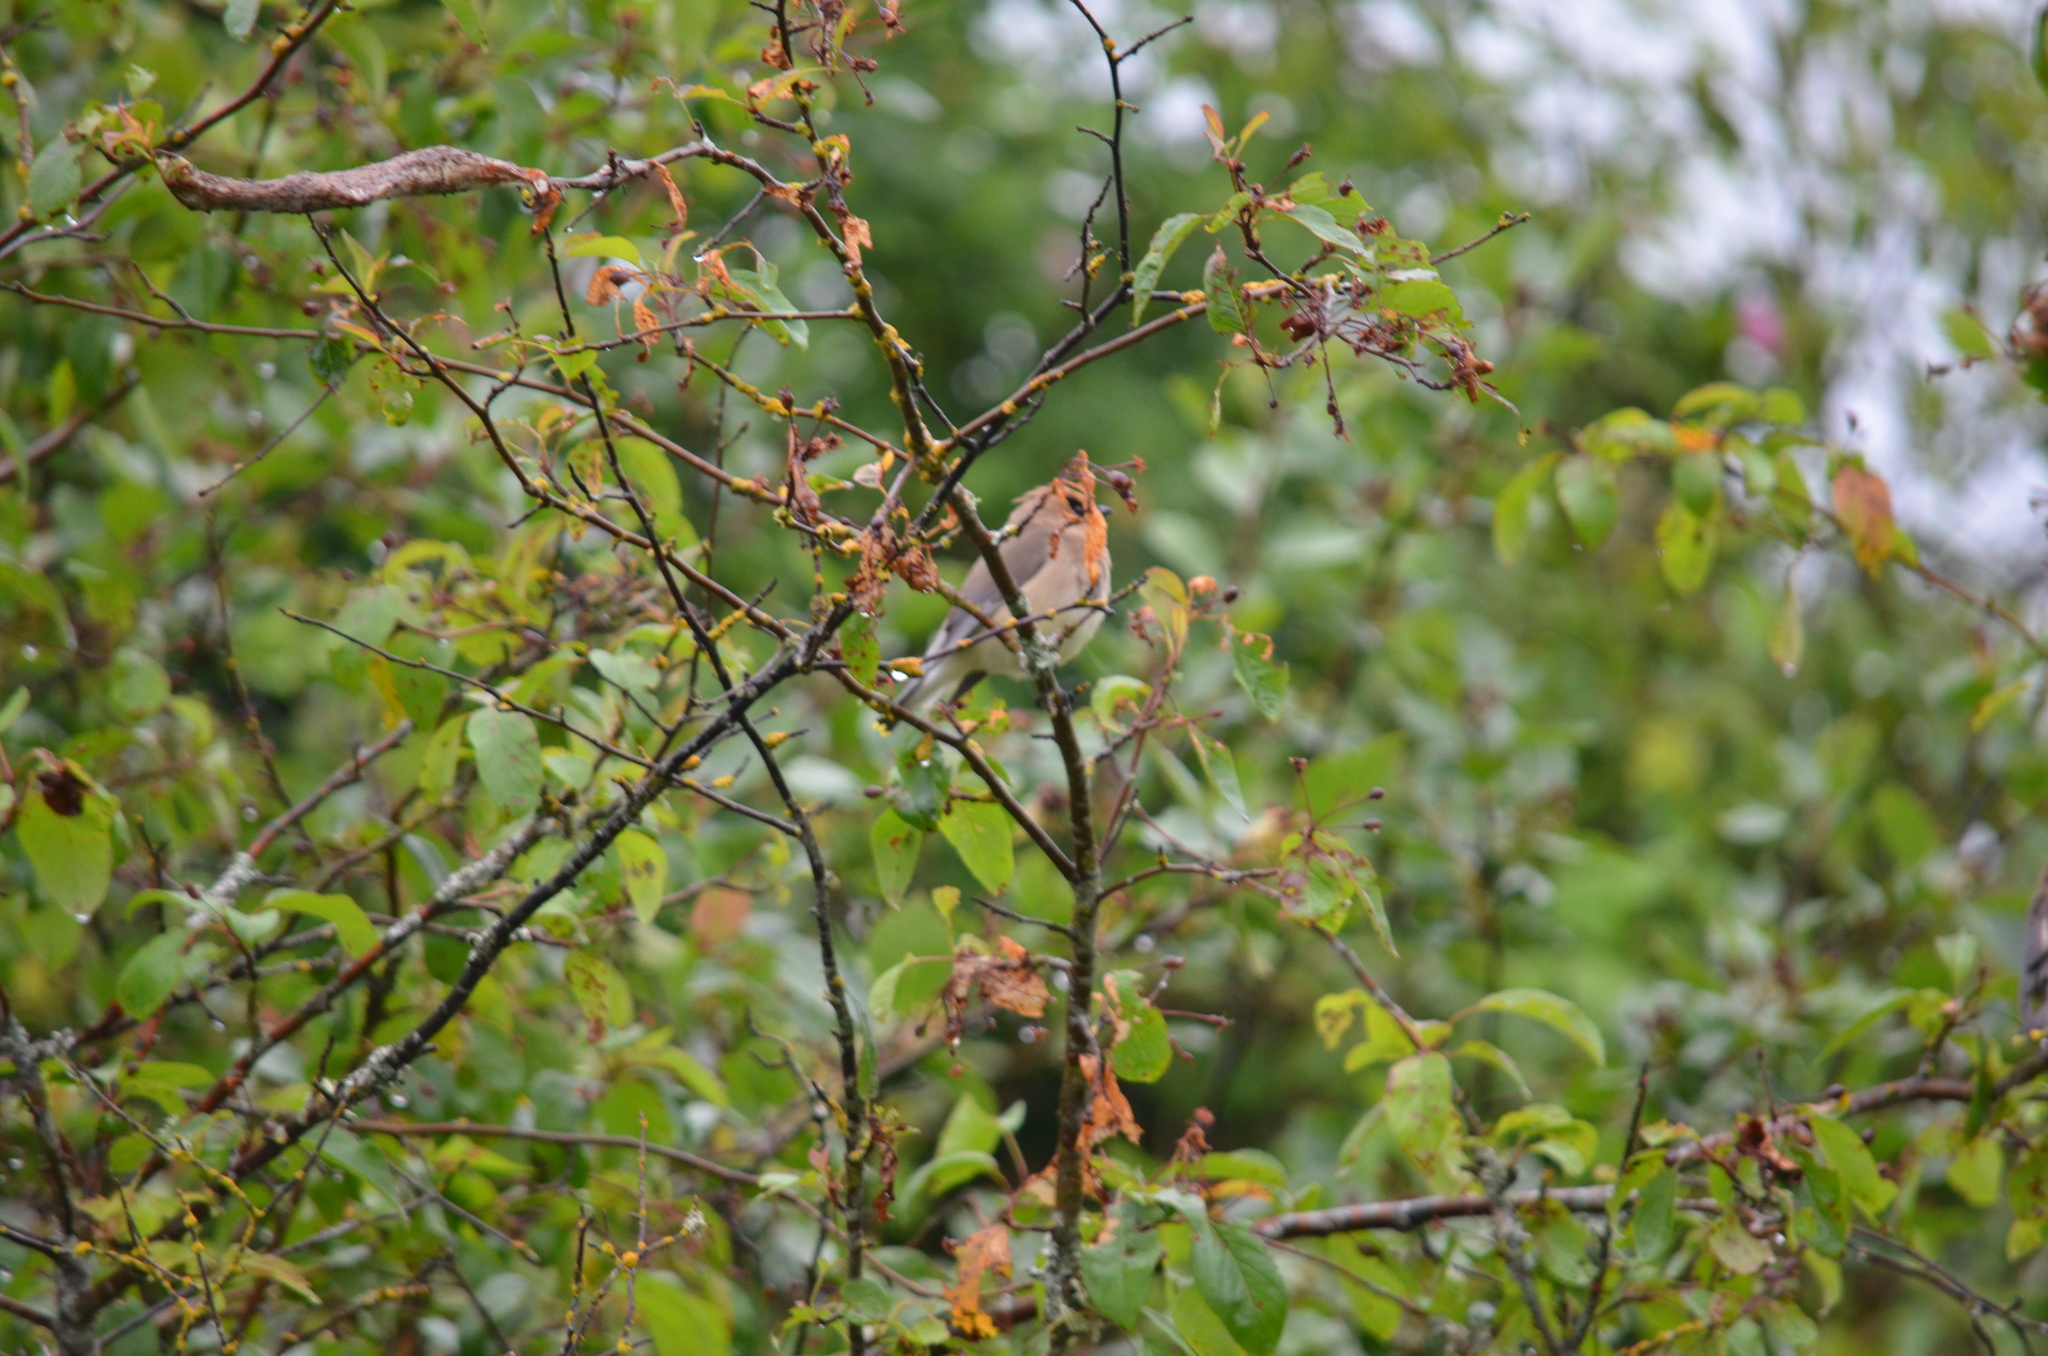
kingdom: Animalia
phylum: Chordata
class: Aves
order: Passeriformes
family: Bombycillidae
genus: Bombycilla
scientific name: Bombycilla cedrorum
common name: Cedar waxwing
